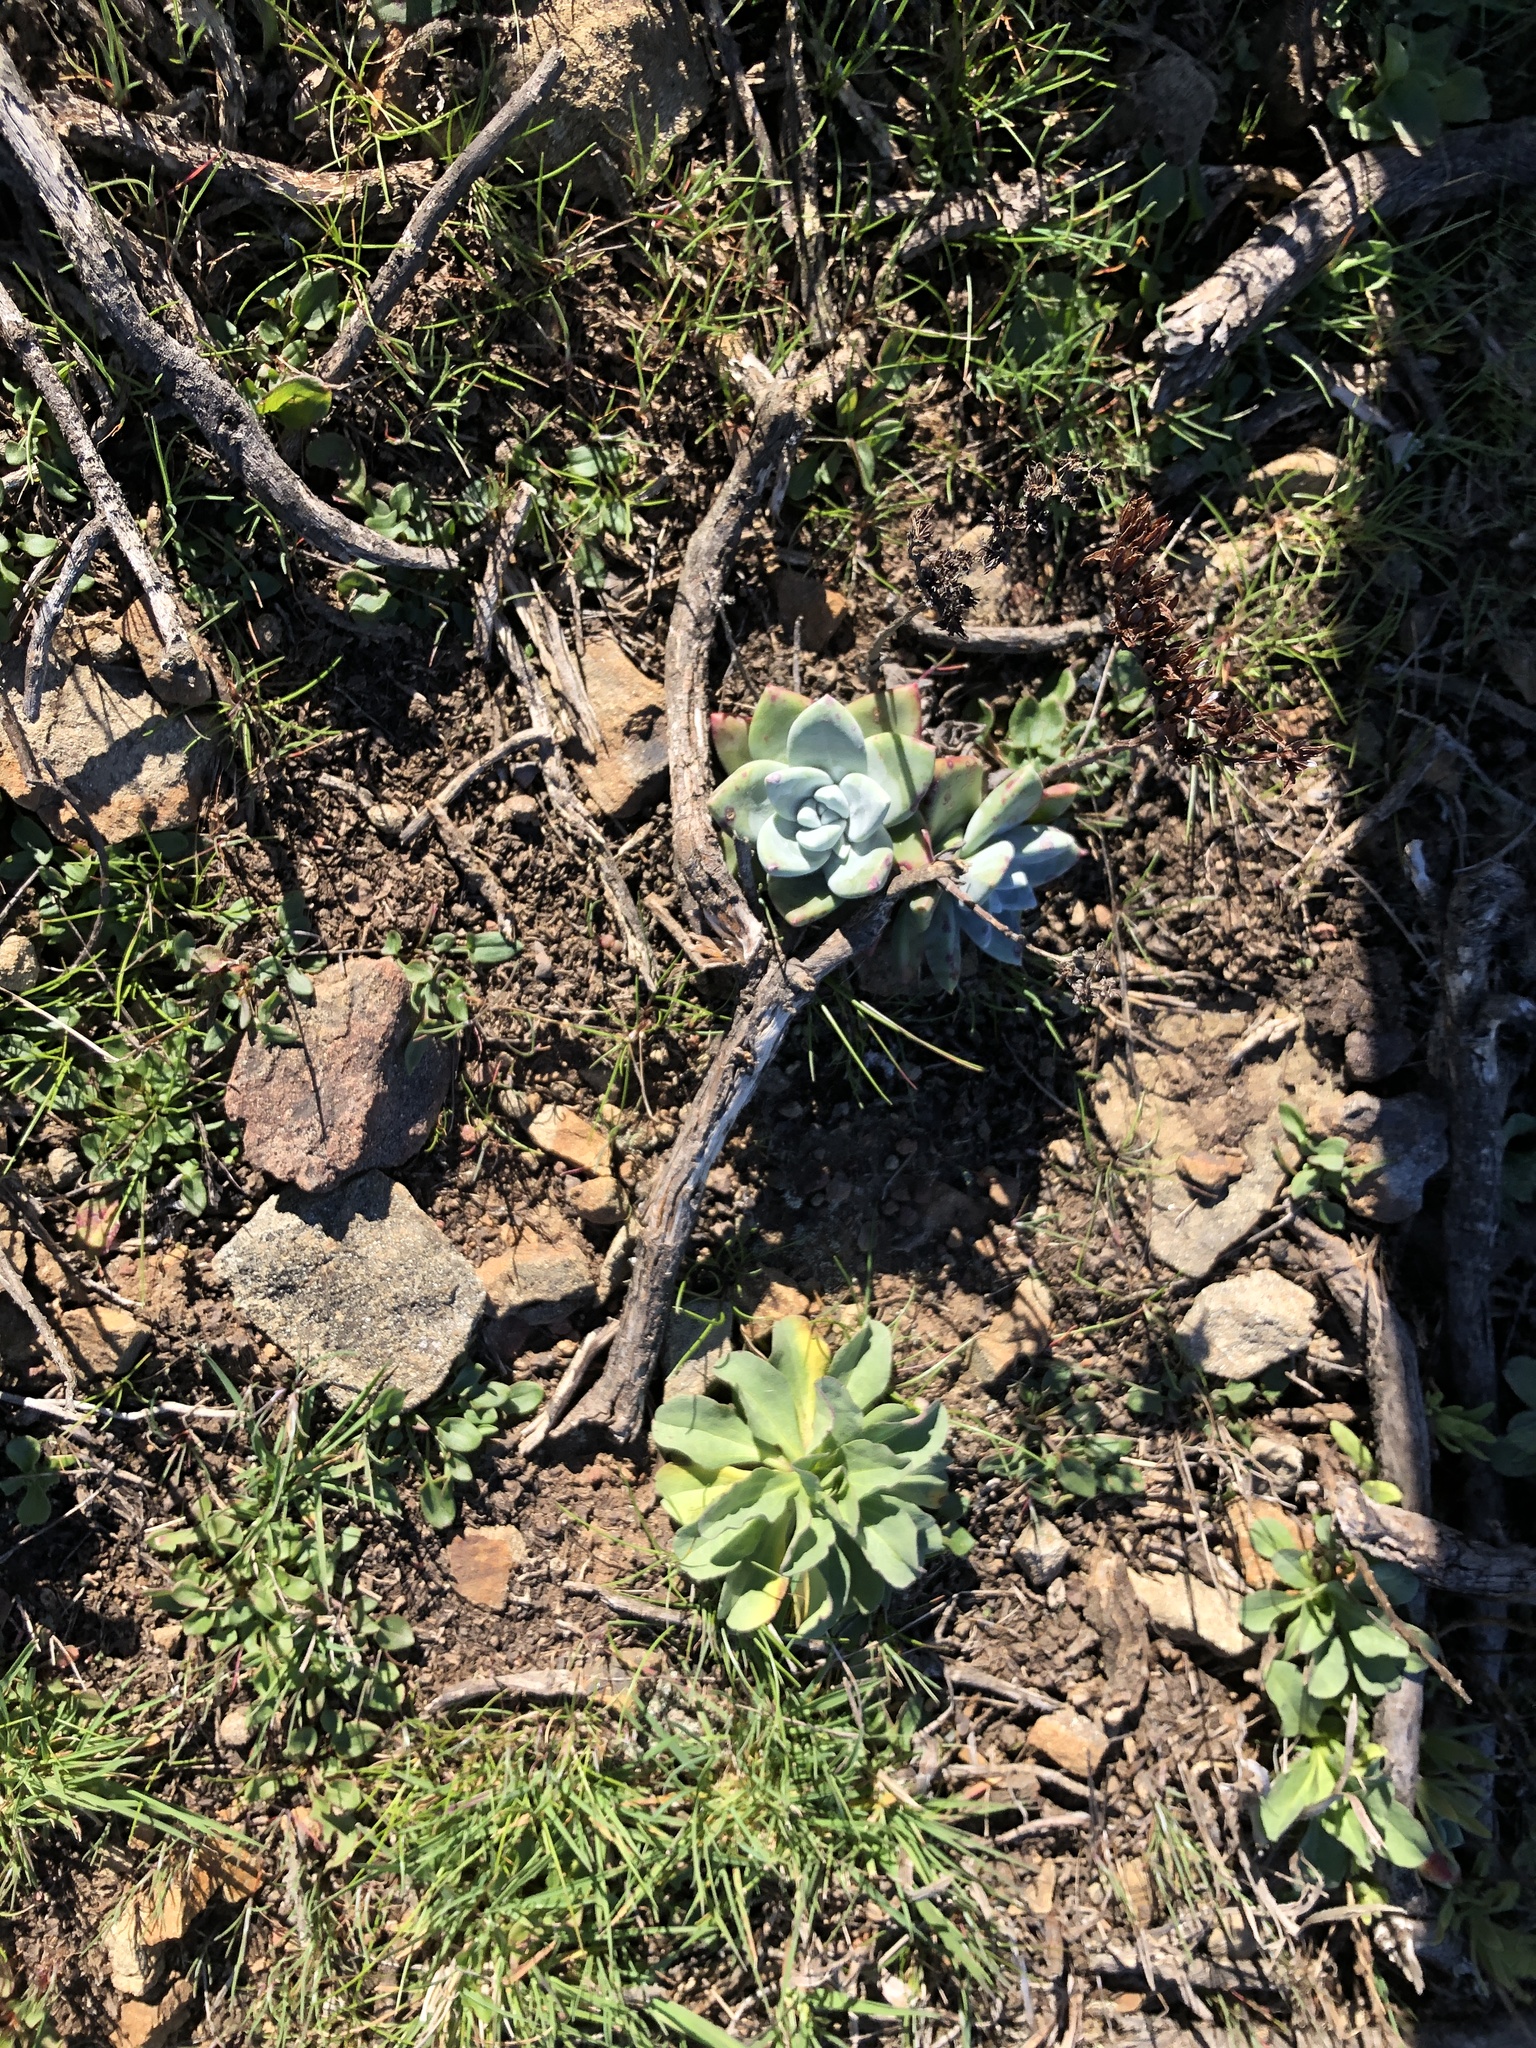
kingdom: Plantae
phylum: Tracheophyta
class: Magnoliopsida
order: Saxifragales
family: Crassulaceae
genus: Dudleya
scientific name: Dudleya farinosa
